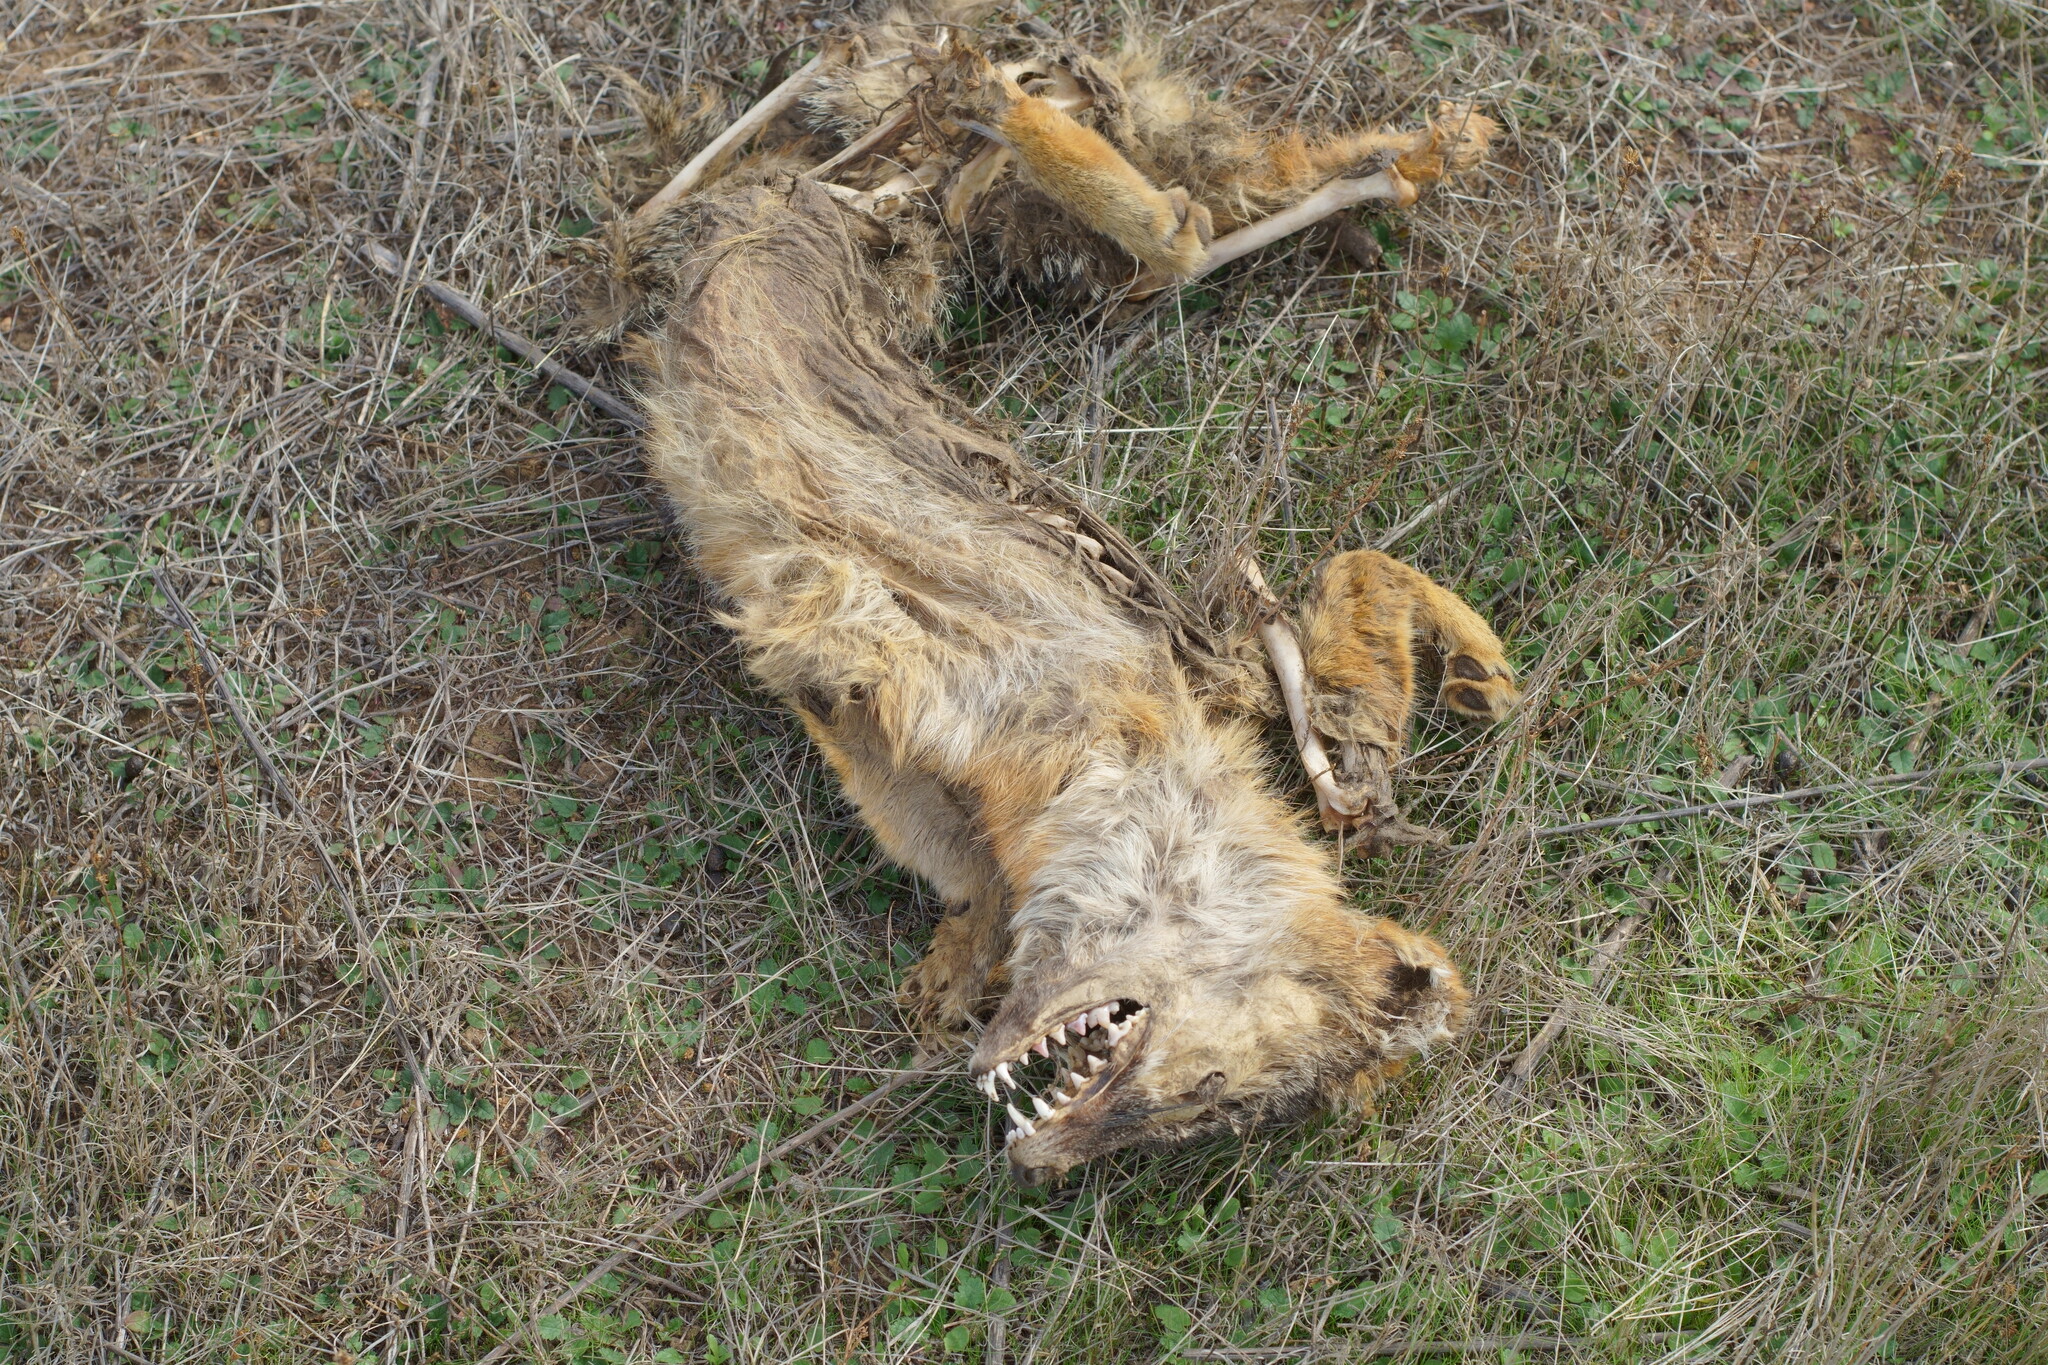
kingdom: Animalia
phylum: Chordata
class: Mammalia
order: Carnivora
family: Canidae
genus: Urocyon
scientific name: Urocyon cinereoargenteus
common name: Gray fox
